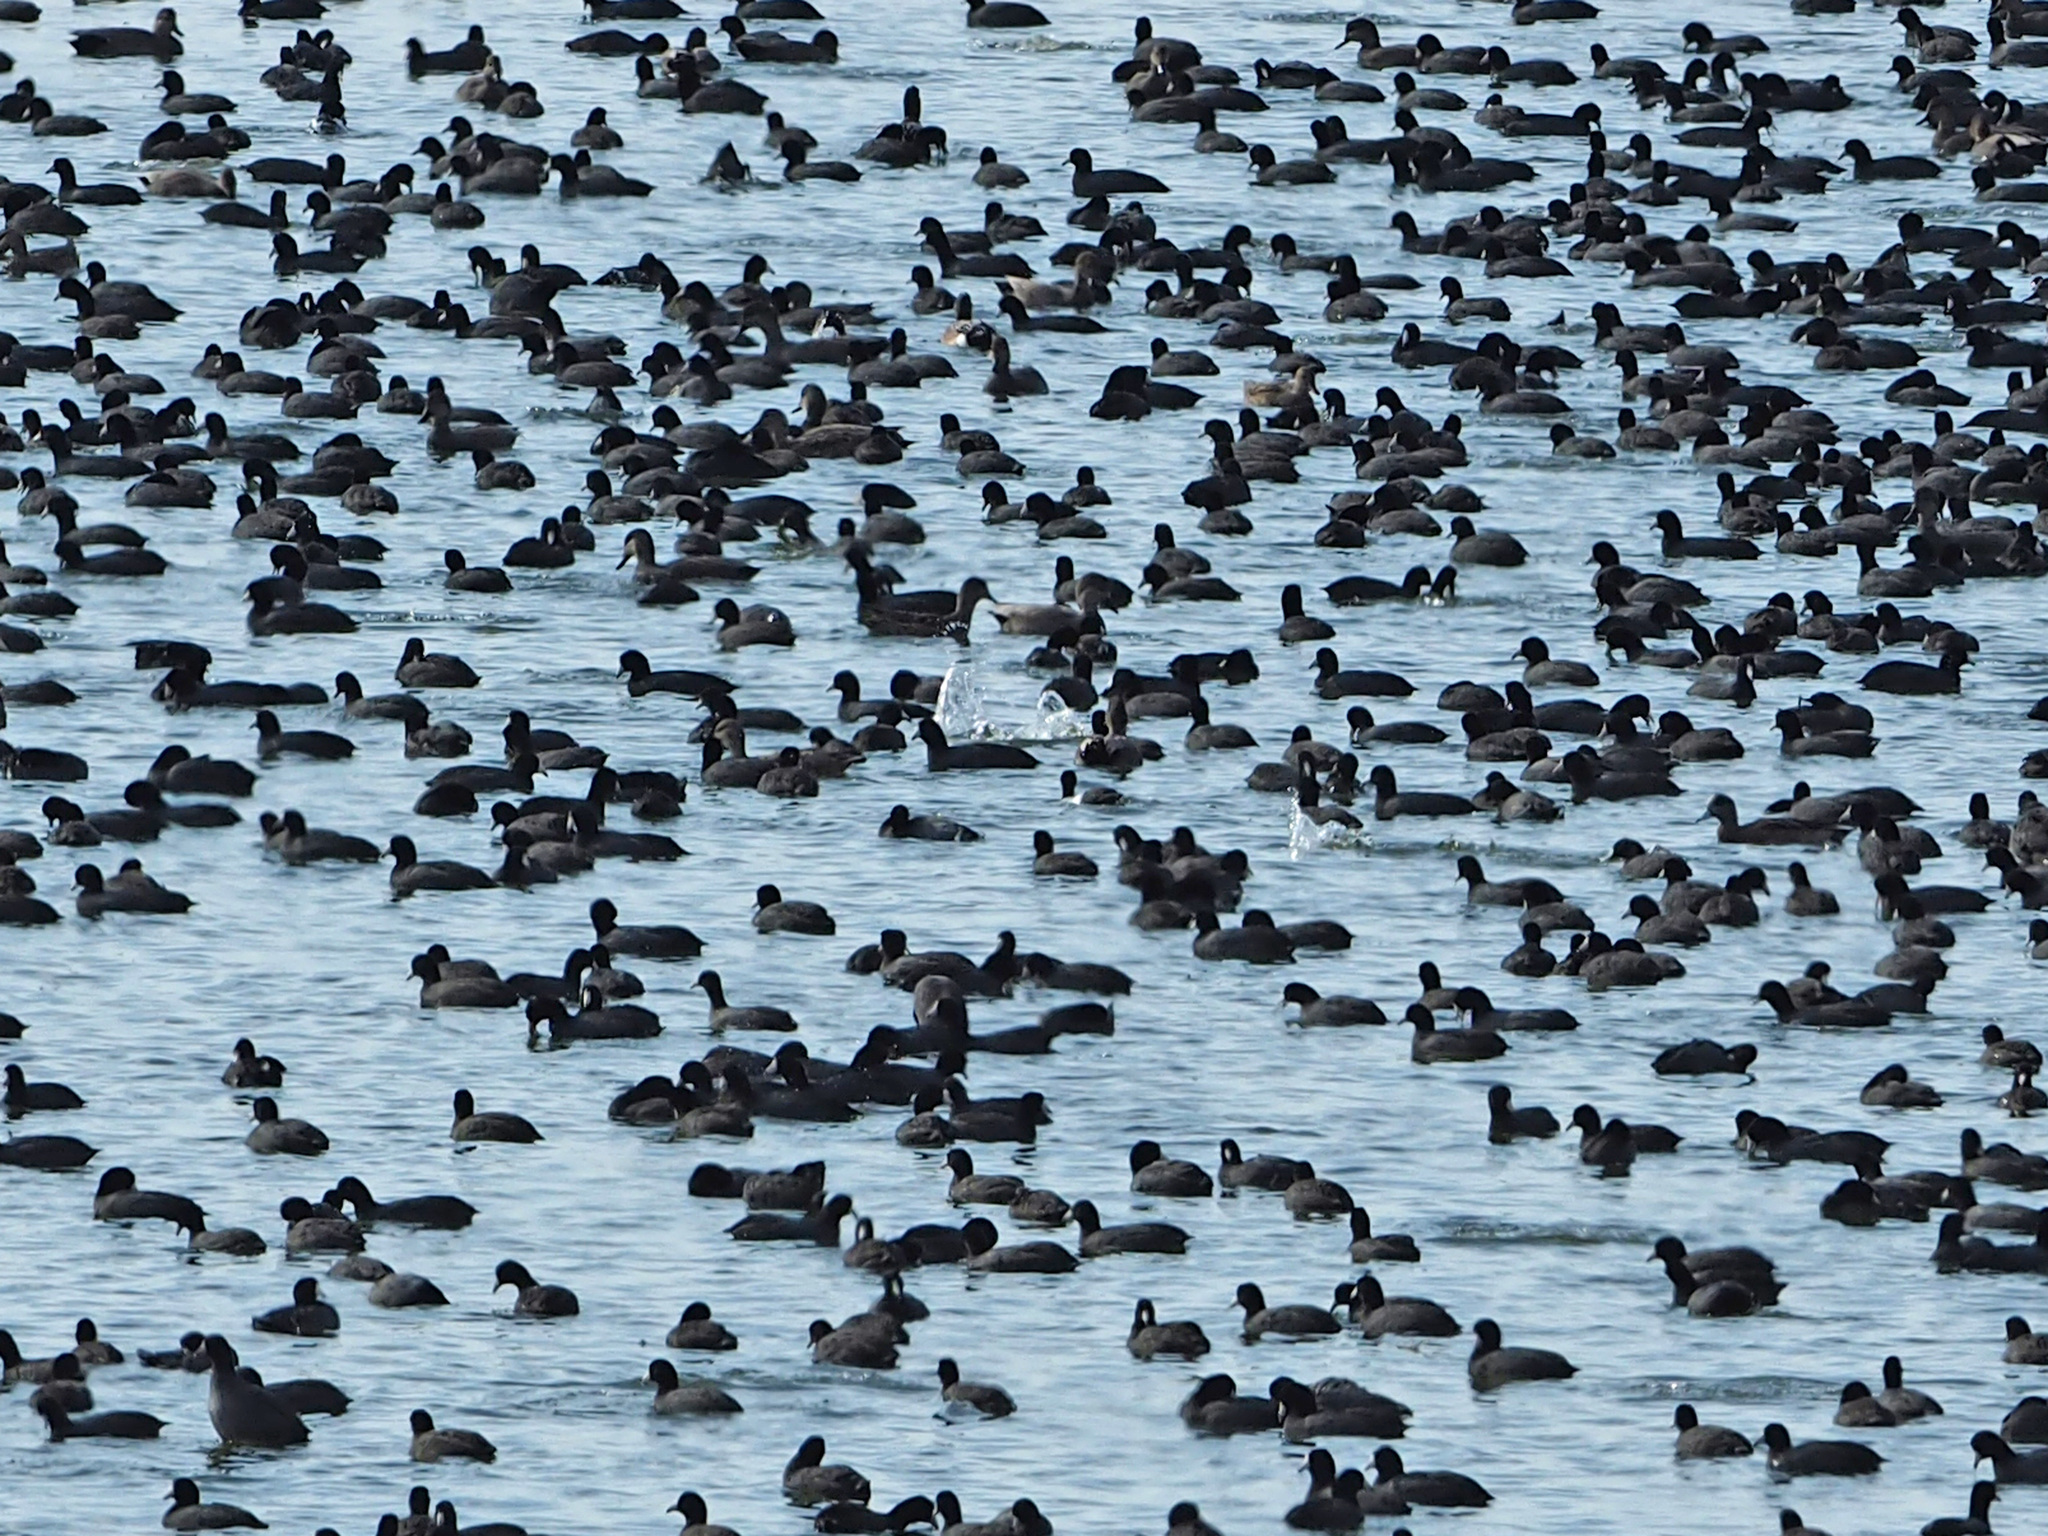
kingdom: Animalia
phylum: Chordata
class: Aves
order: Gruiformes
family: Rallidae
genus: Fulica
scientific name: Fulica americana
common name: American coot
